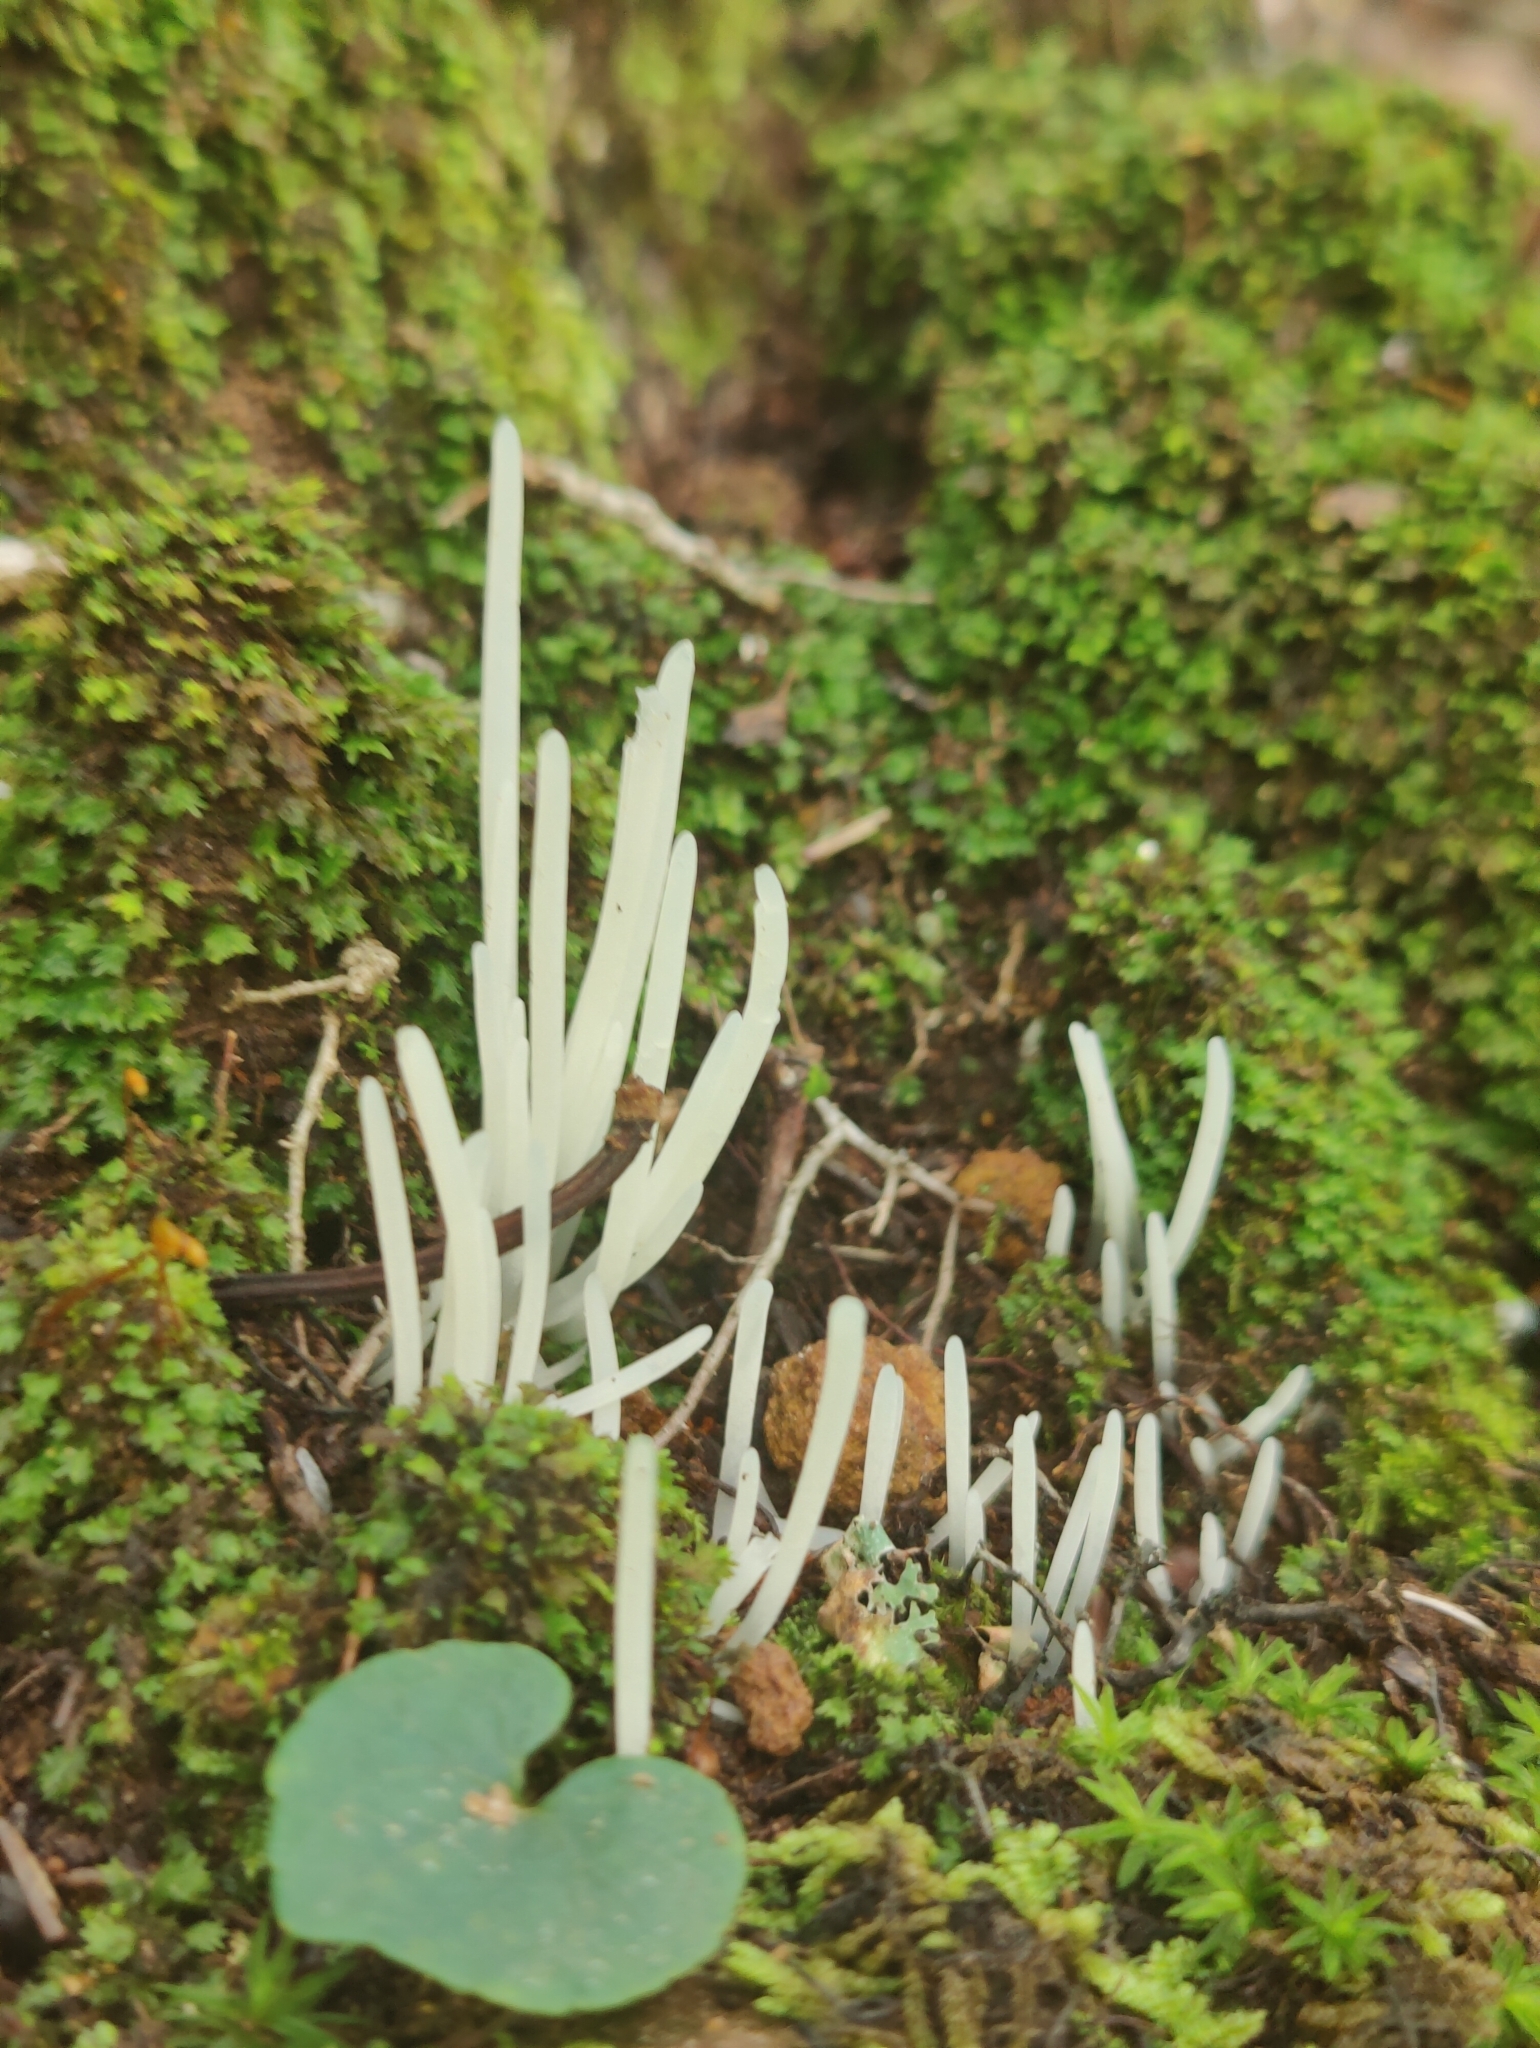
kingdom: Fungi
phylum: Basidiomycota
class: Agaricomycetes
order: Agaricales
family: Clavariaceae
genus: Clavaria
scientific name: Clavaria fragilis
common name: White spindles
